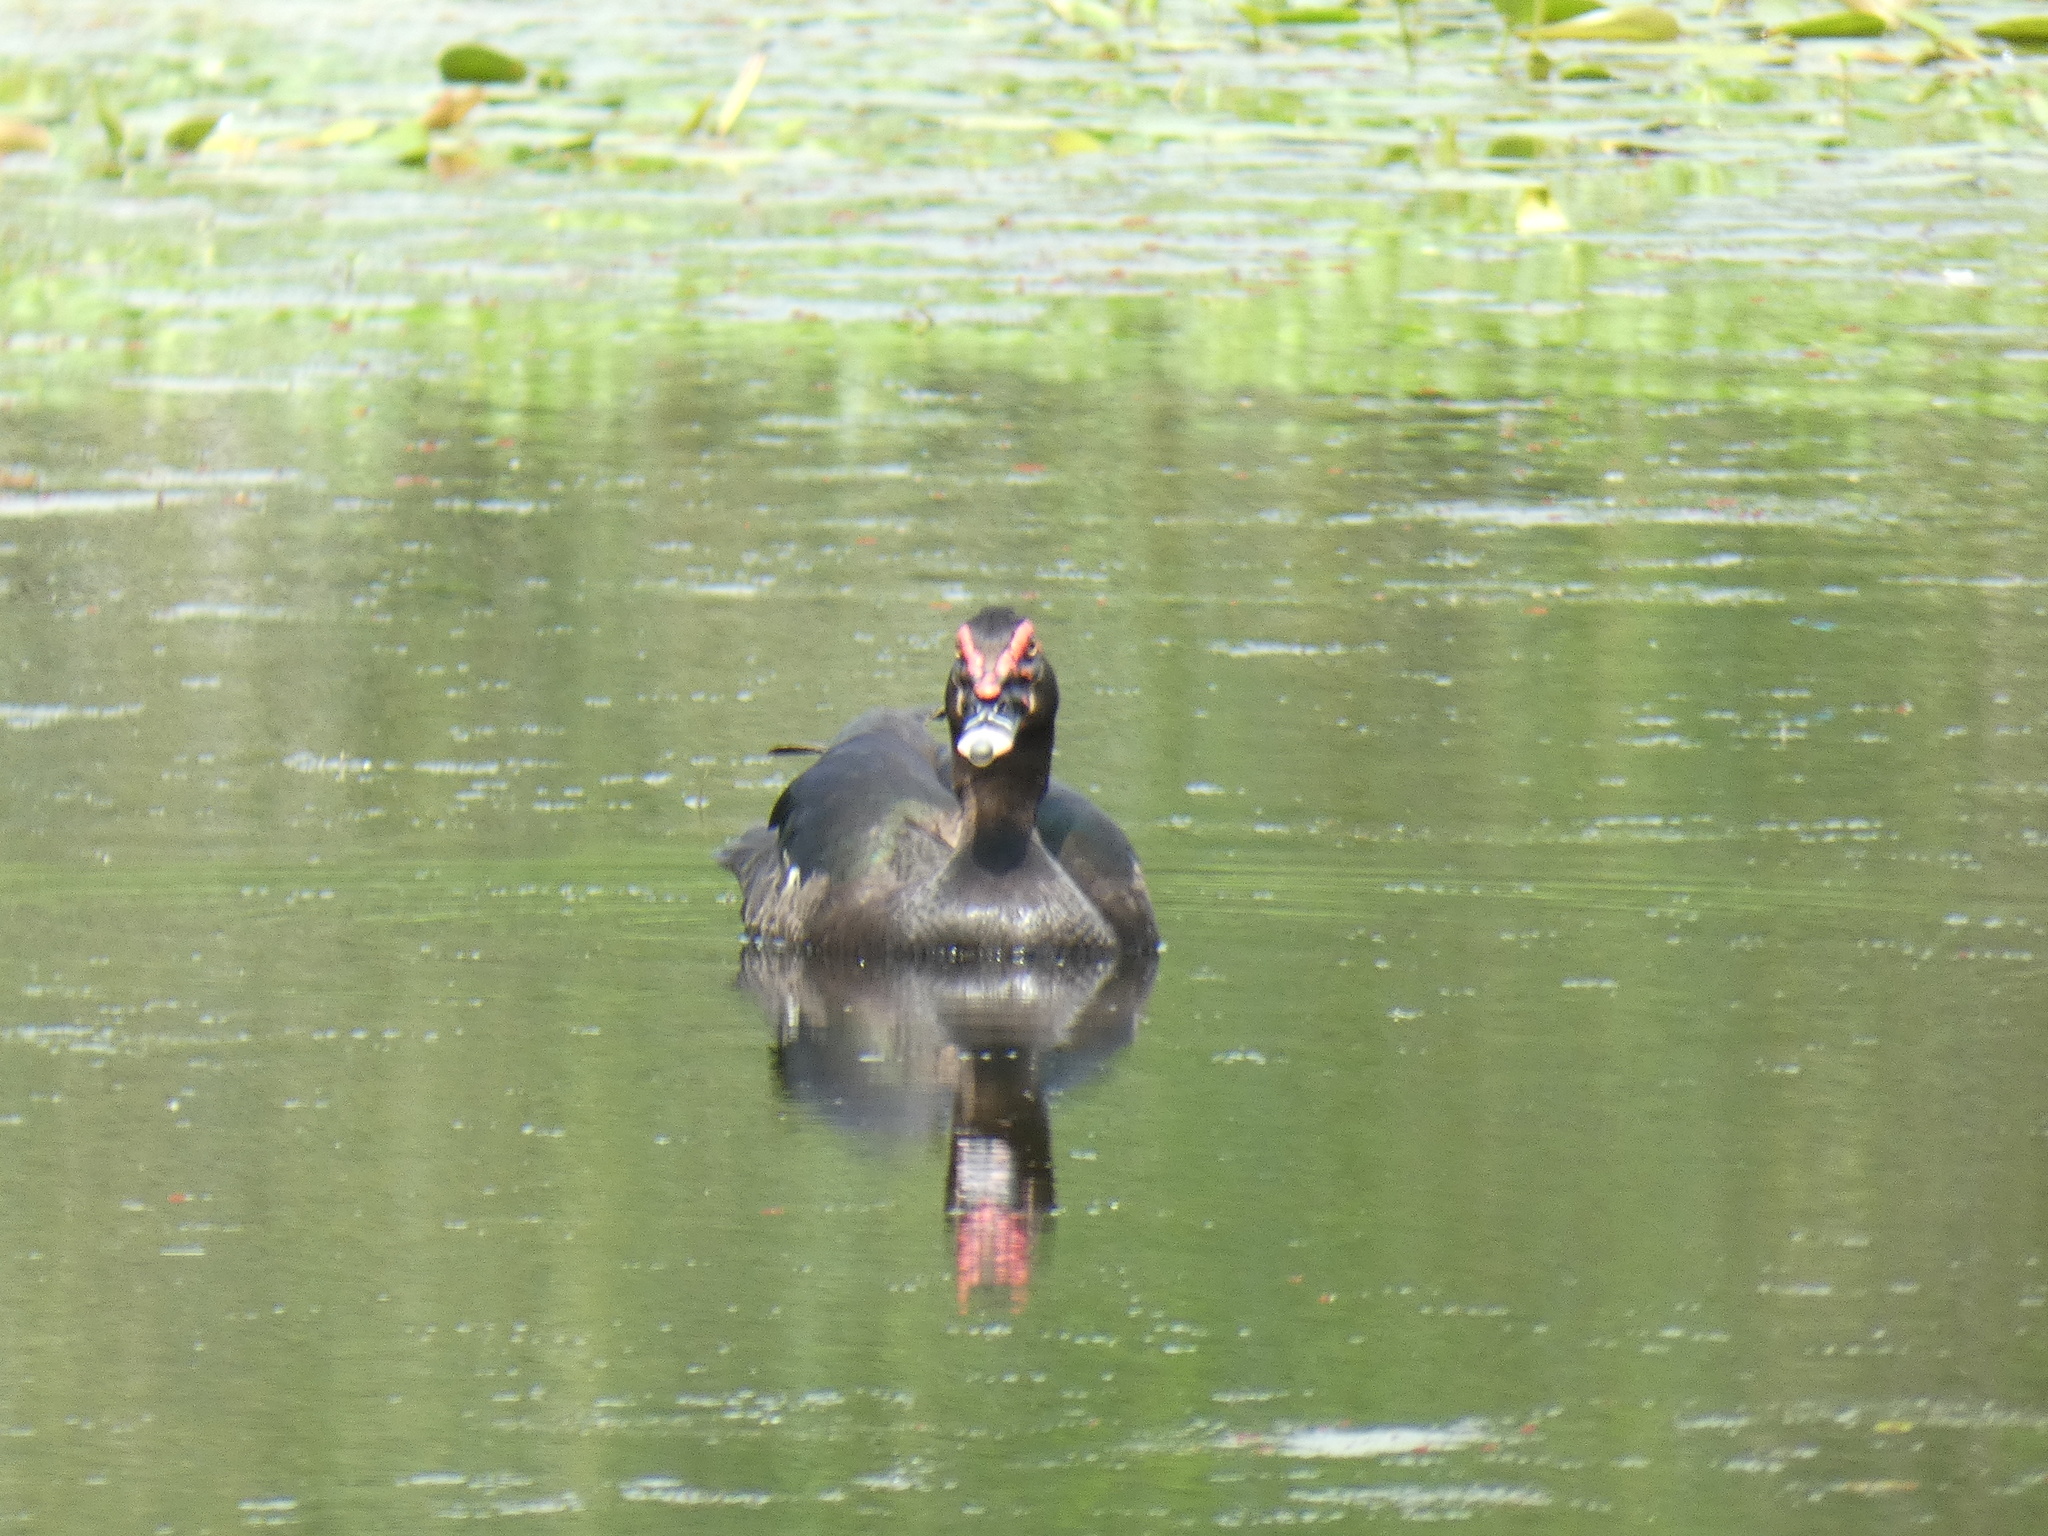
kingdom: Animalia
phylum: Chordata
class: Aves
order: Anseriformes
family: Anatidae
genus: Cairina
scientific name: Cairina moschata
